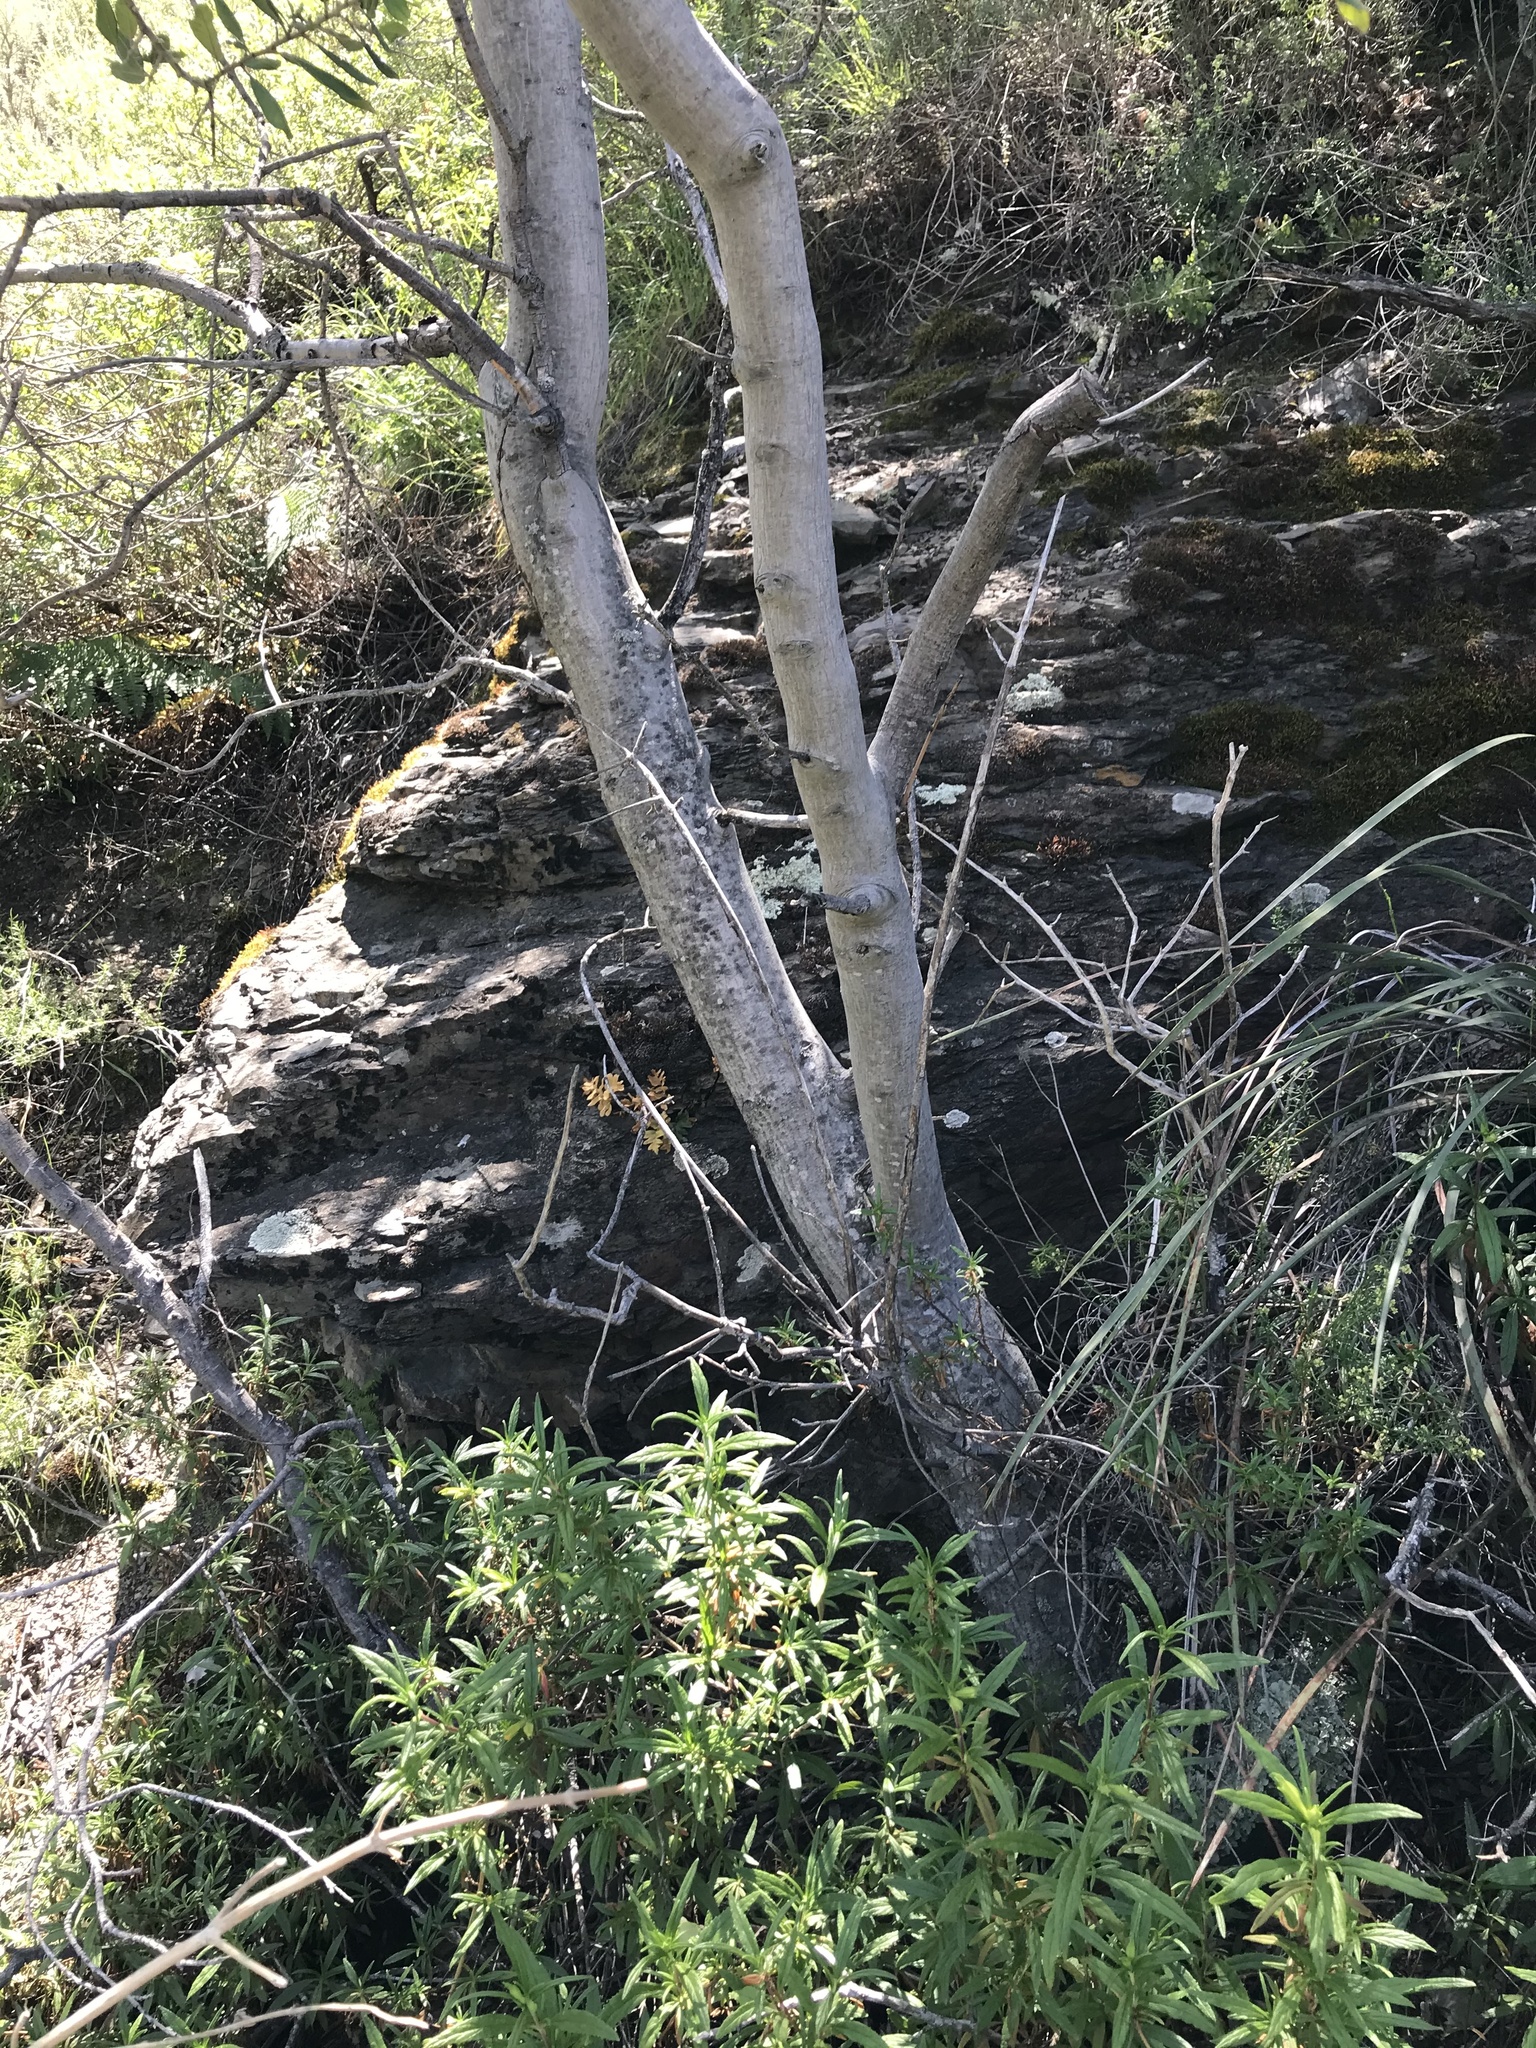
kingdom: Plantae
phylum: Tracheophyta
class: Magnoliopsida
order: Rosales
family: Rhamnaceae
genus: Frangula
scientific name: Frangula californica
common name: California buckthorn
